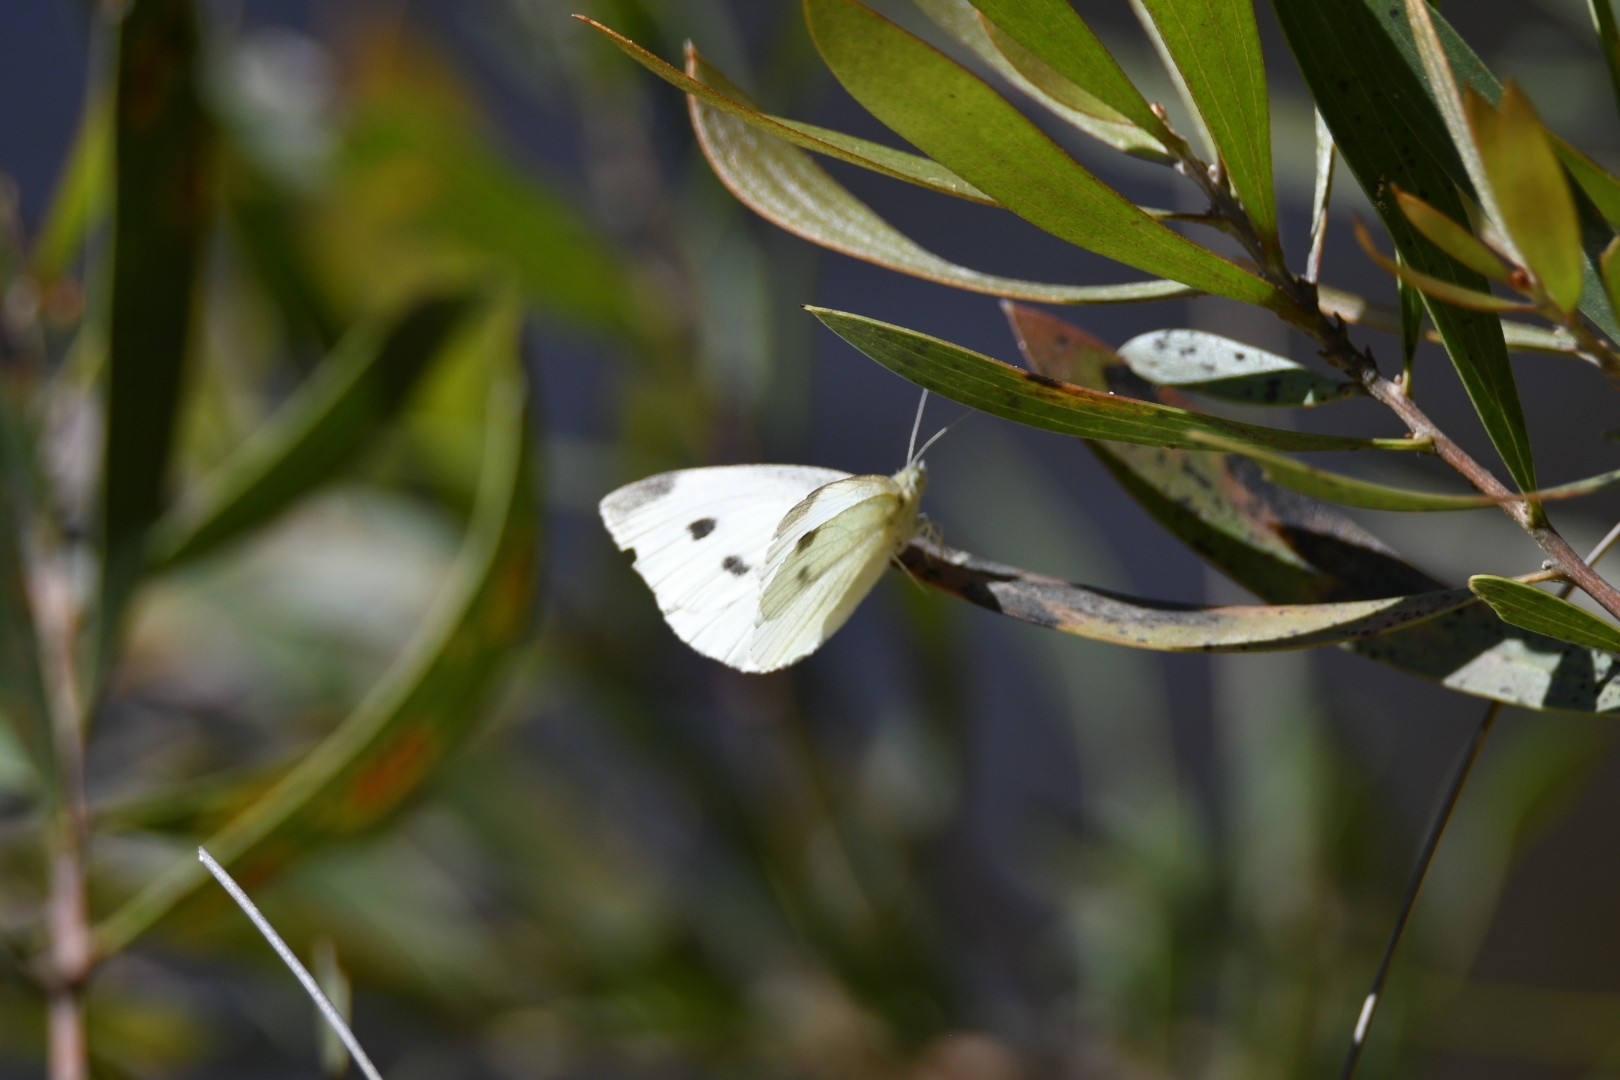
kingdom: Animalia
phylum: Arthropoda
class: Insecta
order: Lepidoptera
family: Pieridae
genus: Pieris
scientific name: Pieris rapae
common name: Small white
